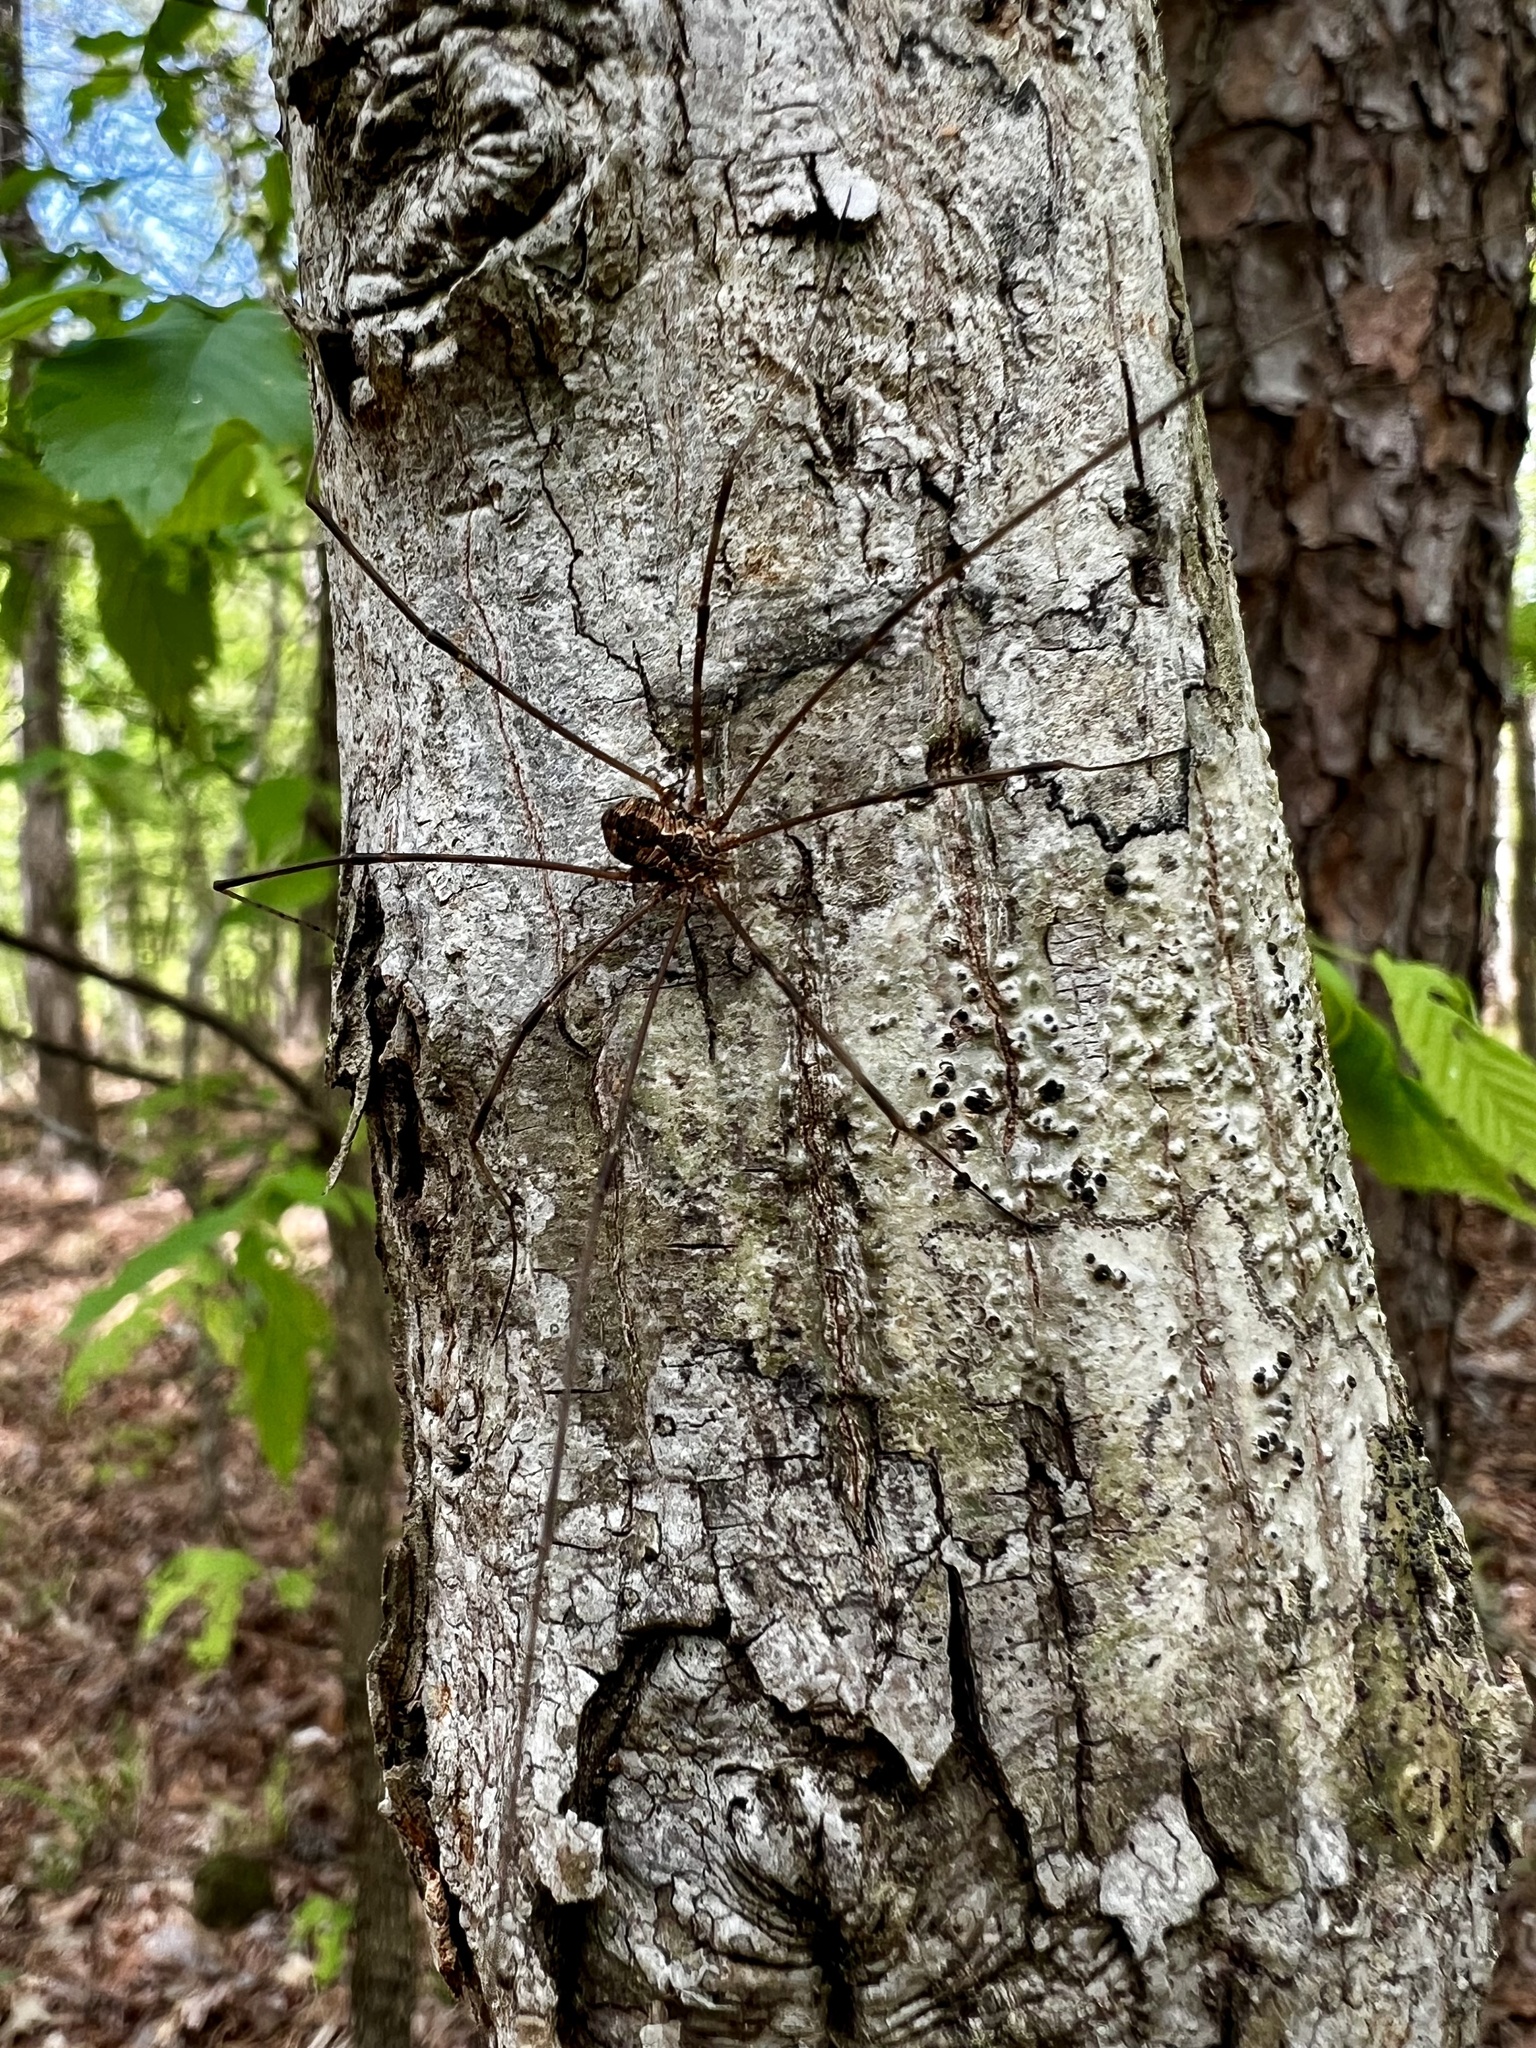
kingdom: Animalia
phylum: Arthropoda
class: Arachnida
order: Opiliones
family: Sclerosomatidae
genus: Leiobunum
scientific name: Leiobunum flavum
